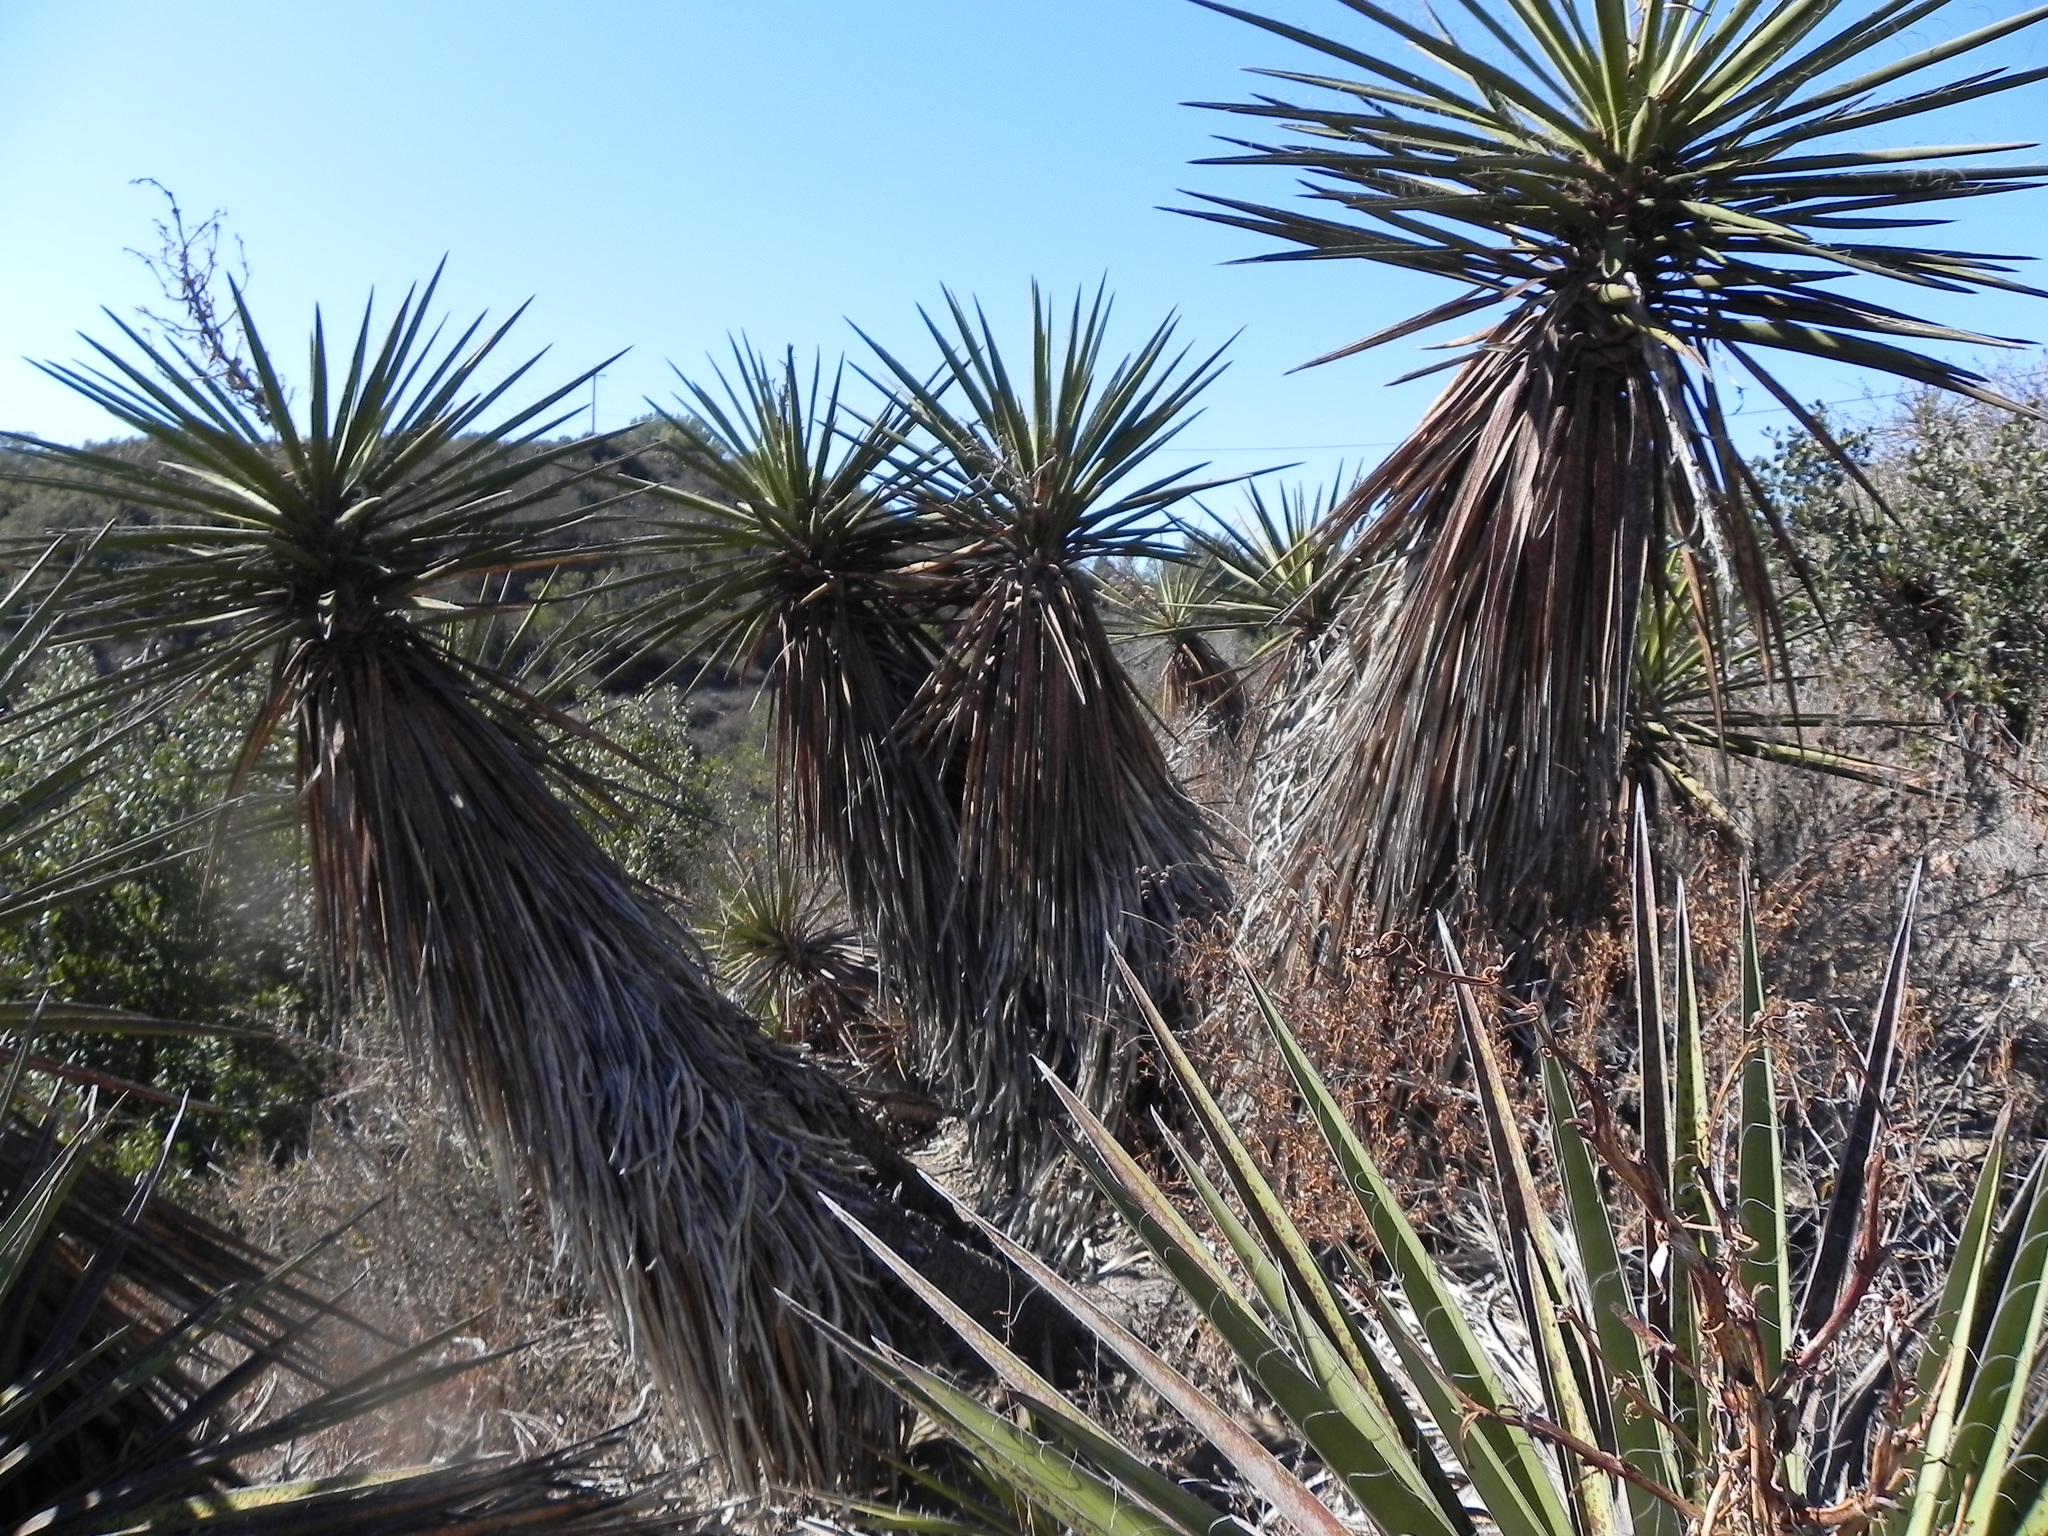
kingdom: Plantae
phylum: Tracheophyta
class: Liliopsida
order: Asparagales
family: Asparagaceae
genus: Yucca
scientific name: Yucca schidigera
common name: Mojave yucca
